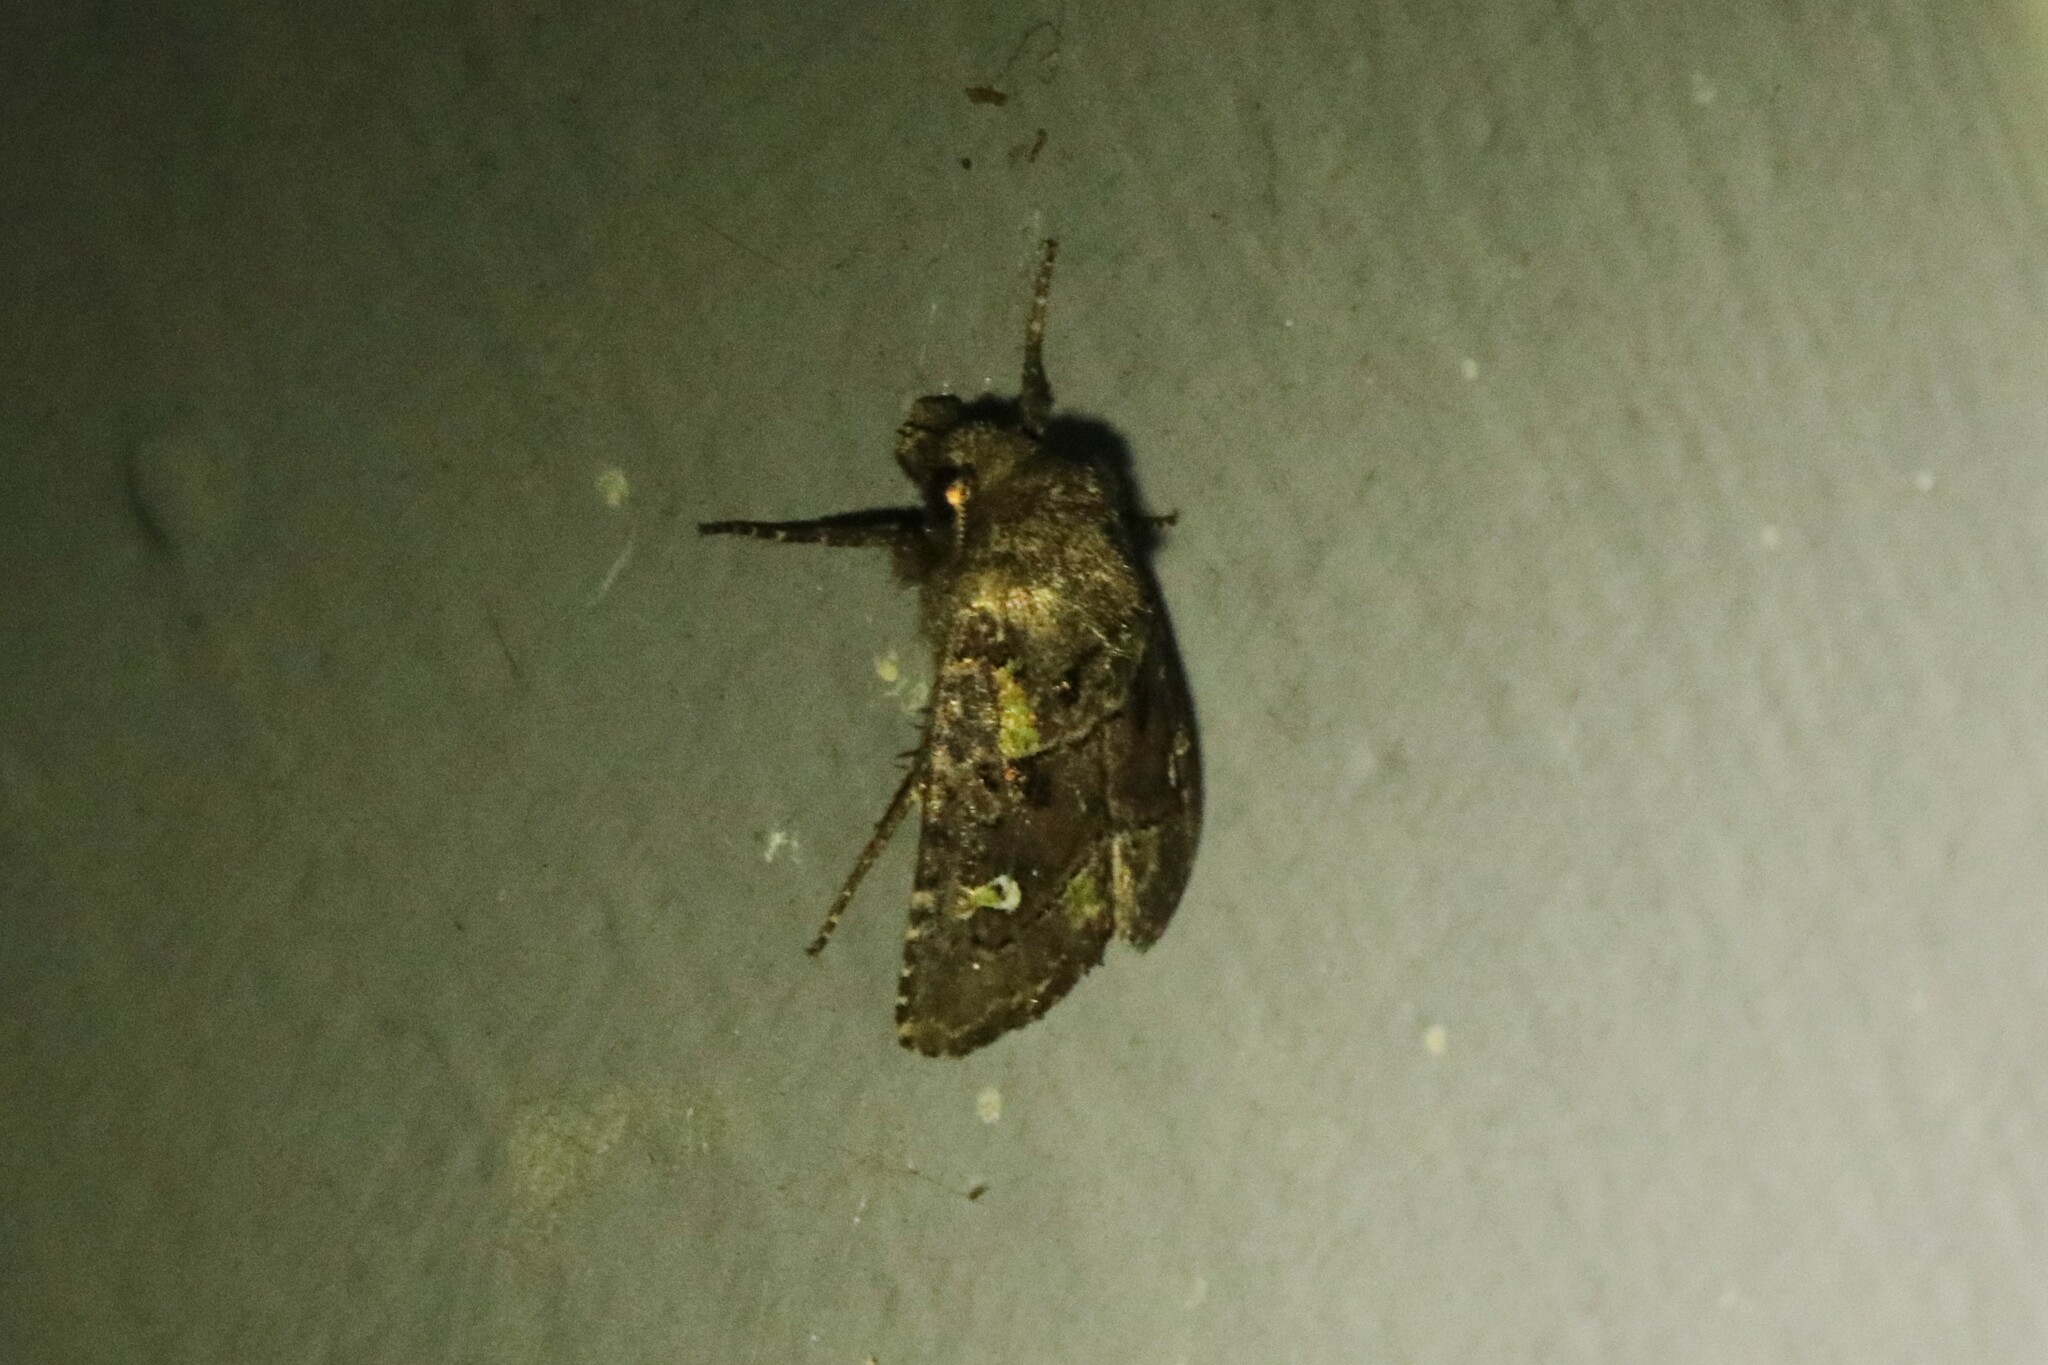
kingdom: Animalia
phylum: Arthropoda
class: Insecta
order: Lepidoptera
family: Noctuidae
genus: Lacinipolia
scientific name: Lacinipolia renigera
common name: Kidney-spotted minor
